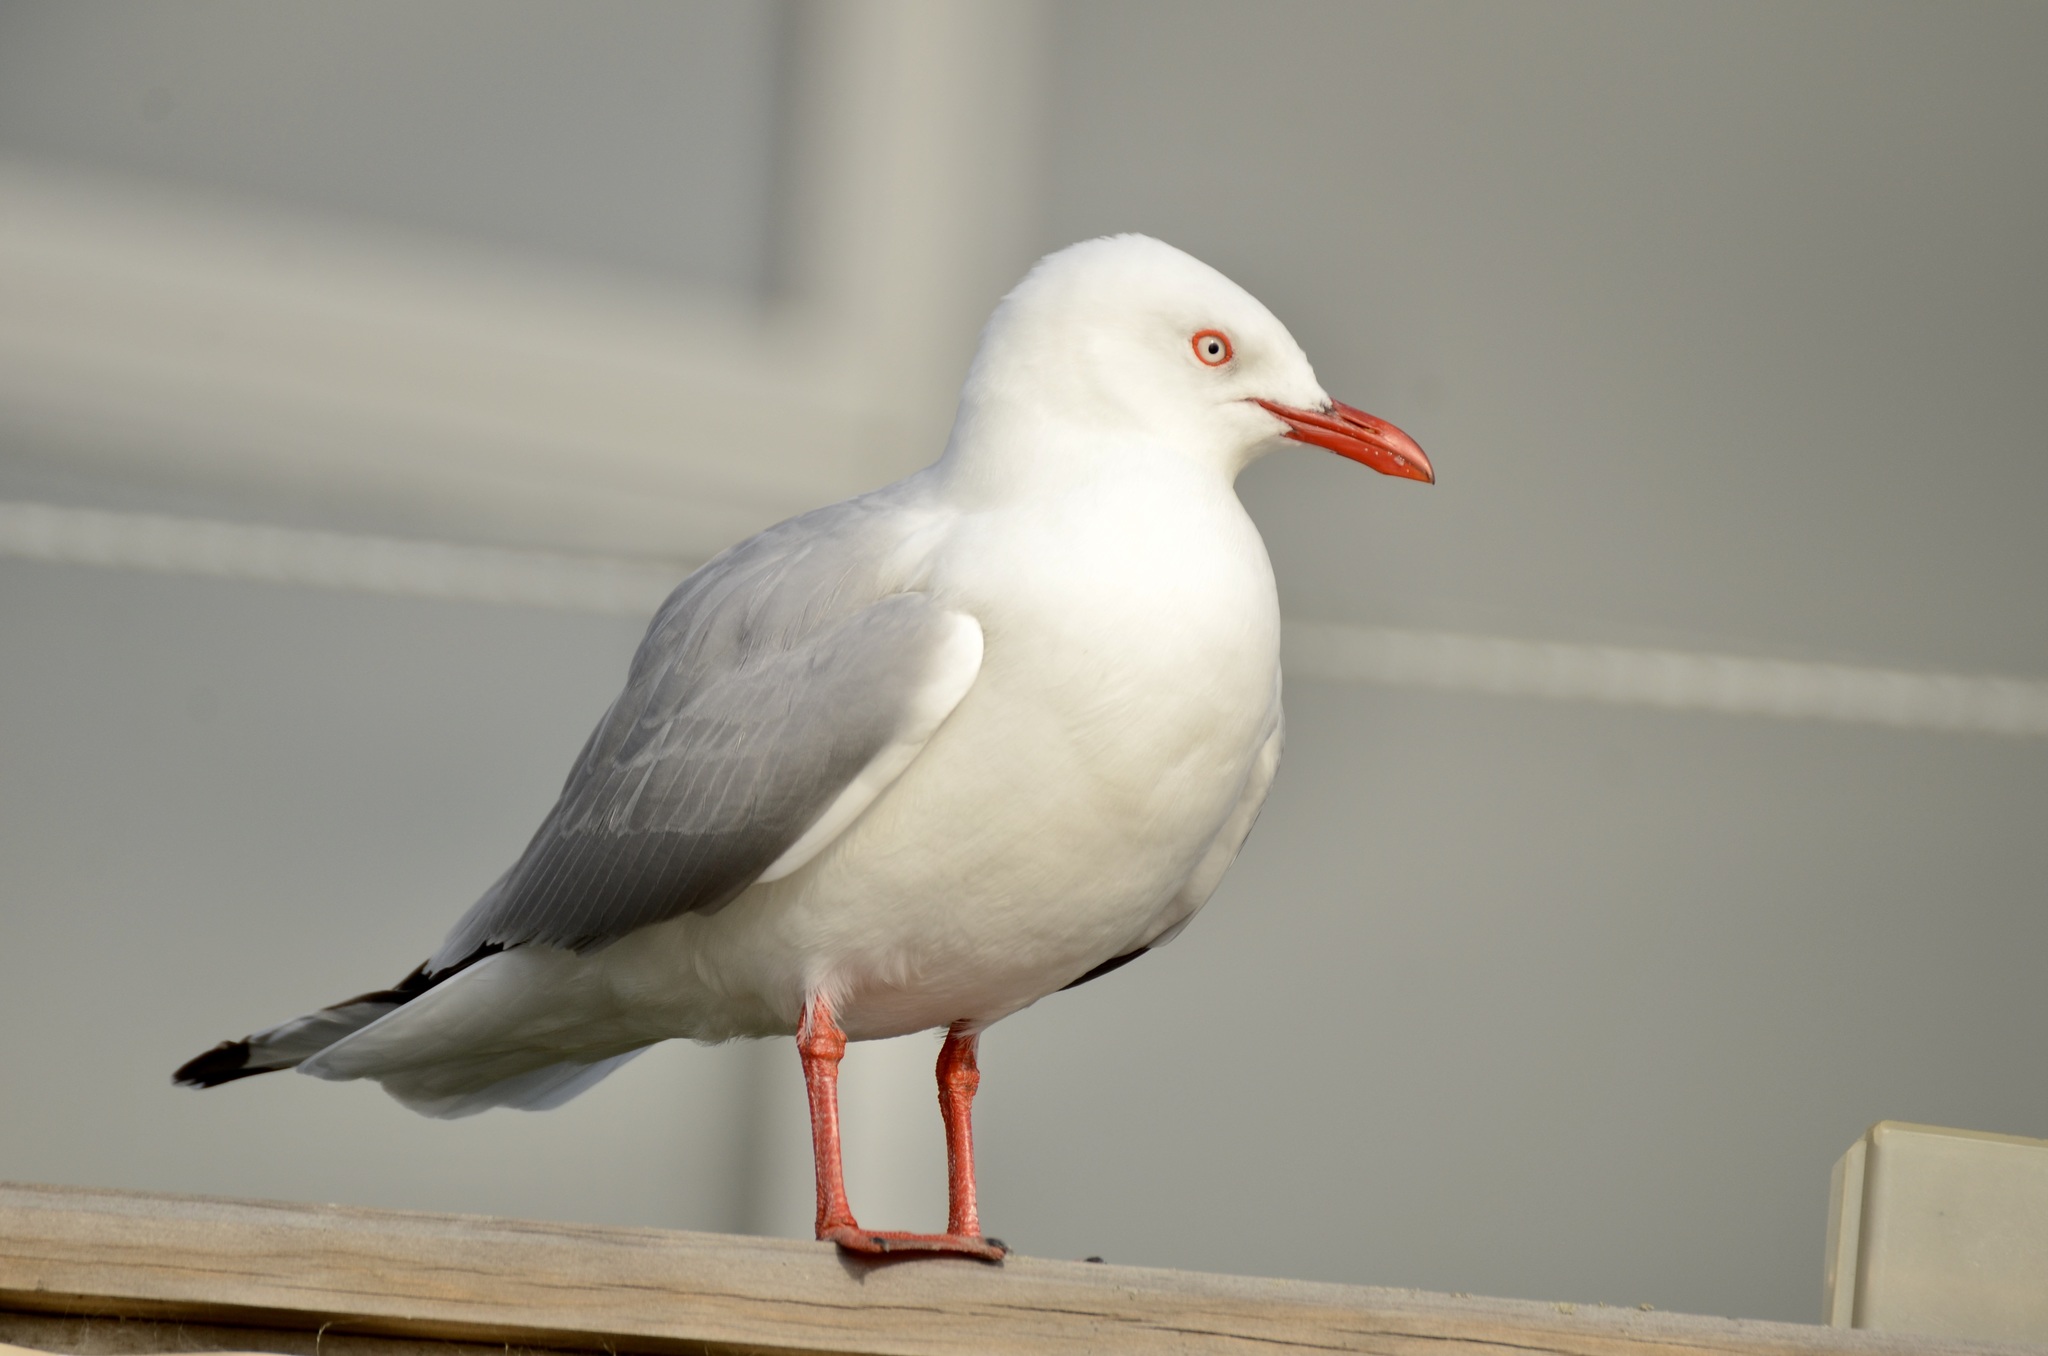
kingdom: Animalia
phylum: Chordata
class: Aves
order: Charadriiformes
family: Laridae
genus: Chroicocephalus
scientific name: Chroicocephalus novaehollandiae
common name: Silver gull
